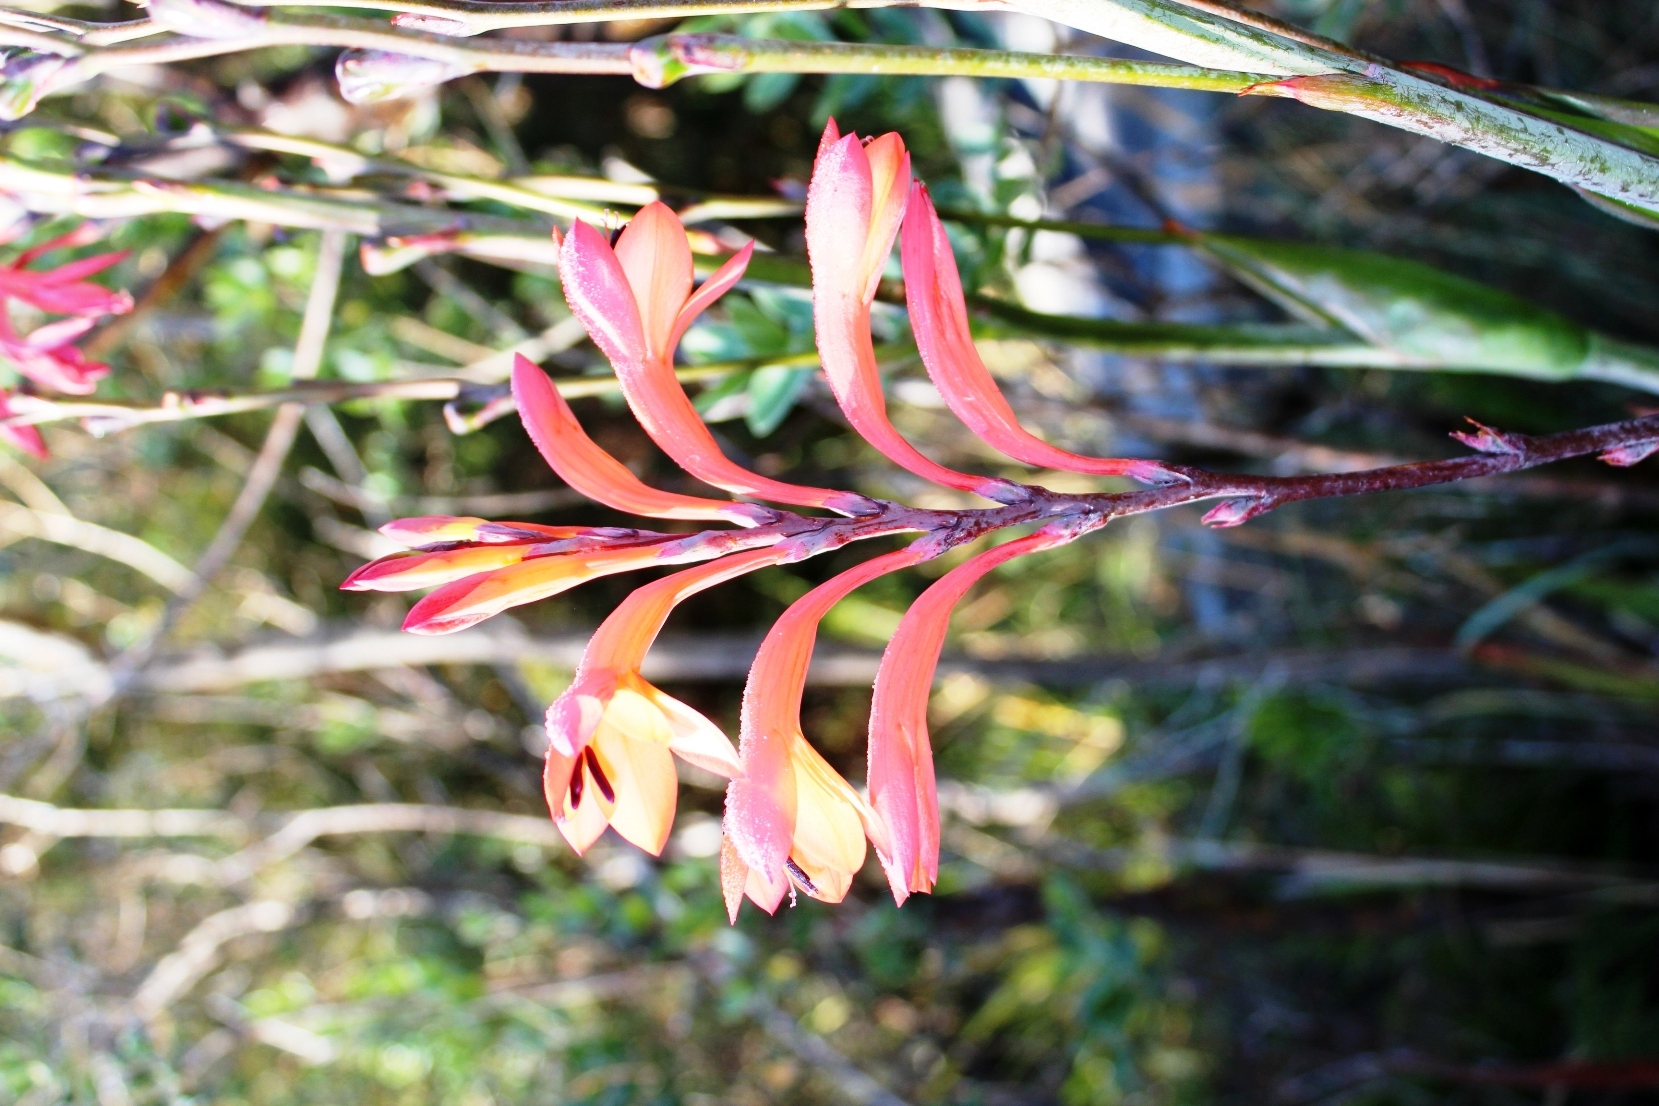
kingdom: Plantae
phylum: Tracheophyta
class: Liliopsida
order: Asparagales
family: Iridaceae
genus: Watsonia
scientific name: Watsonia tabularis
